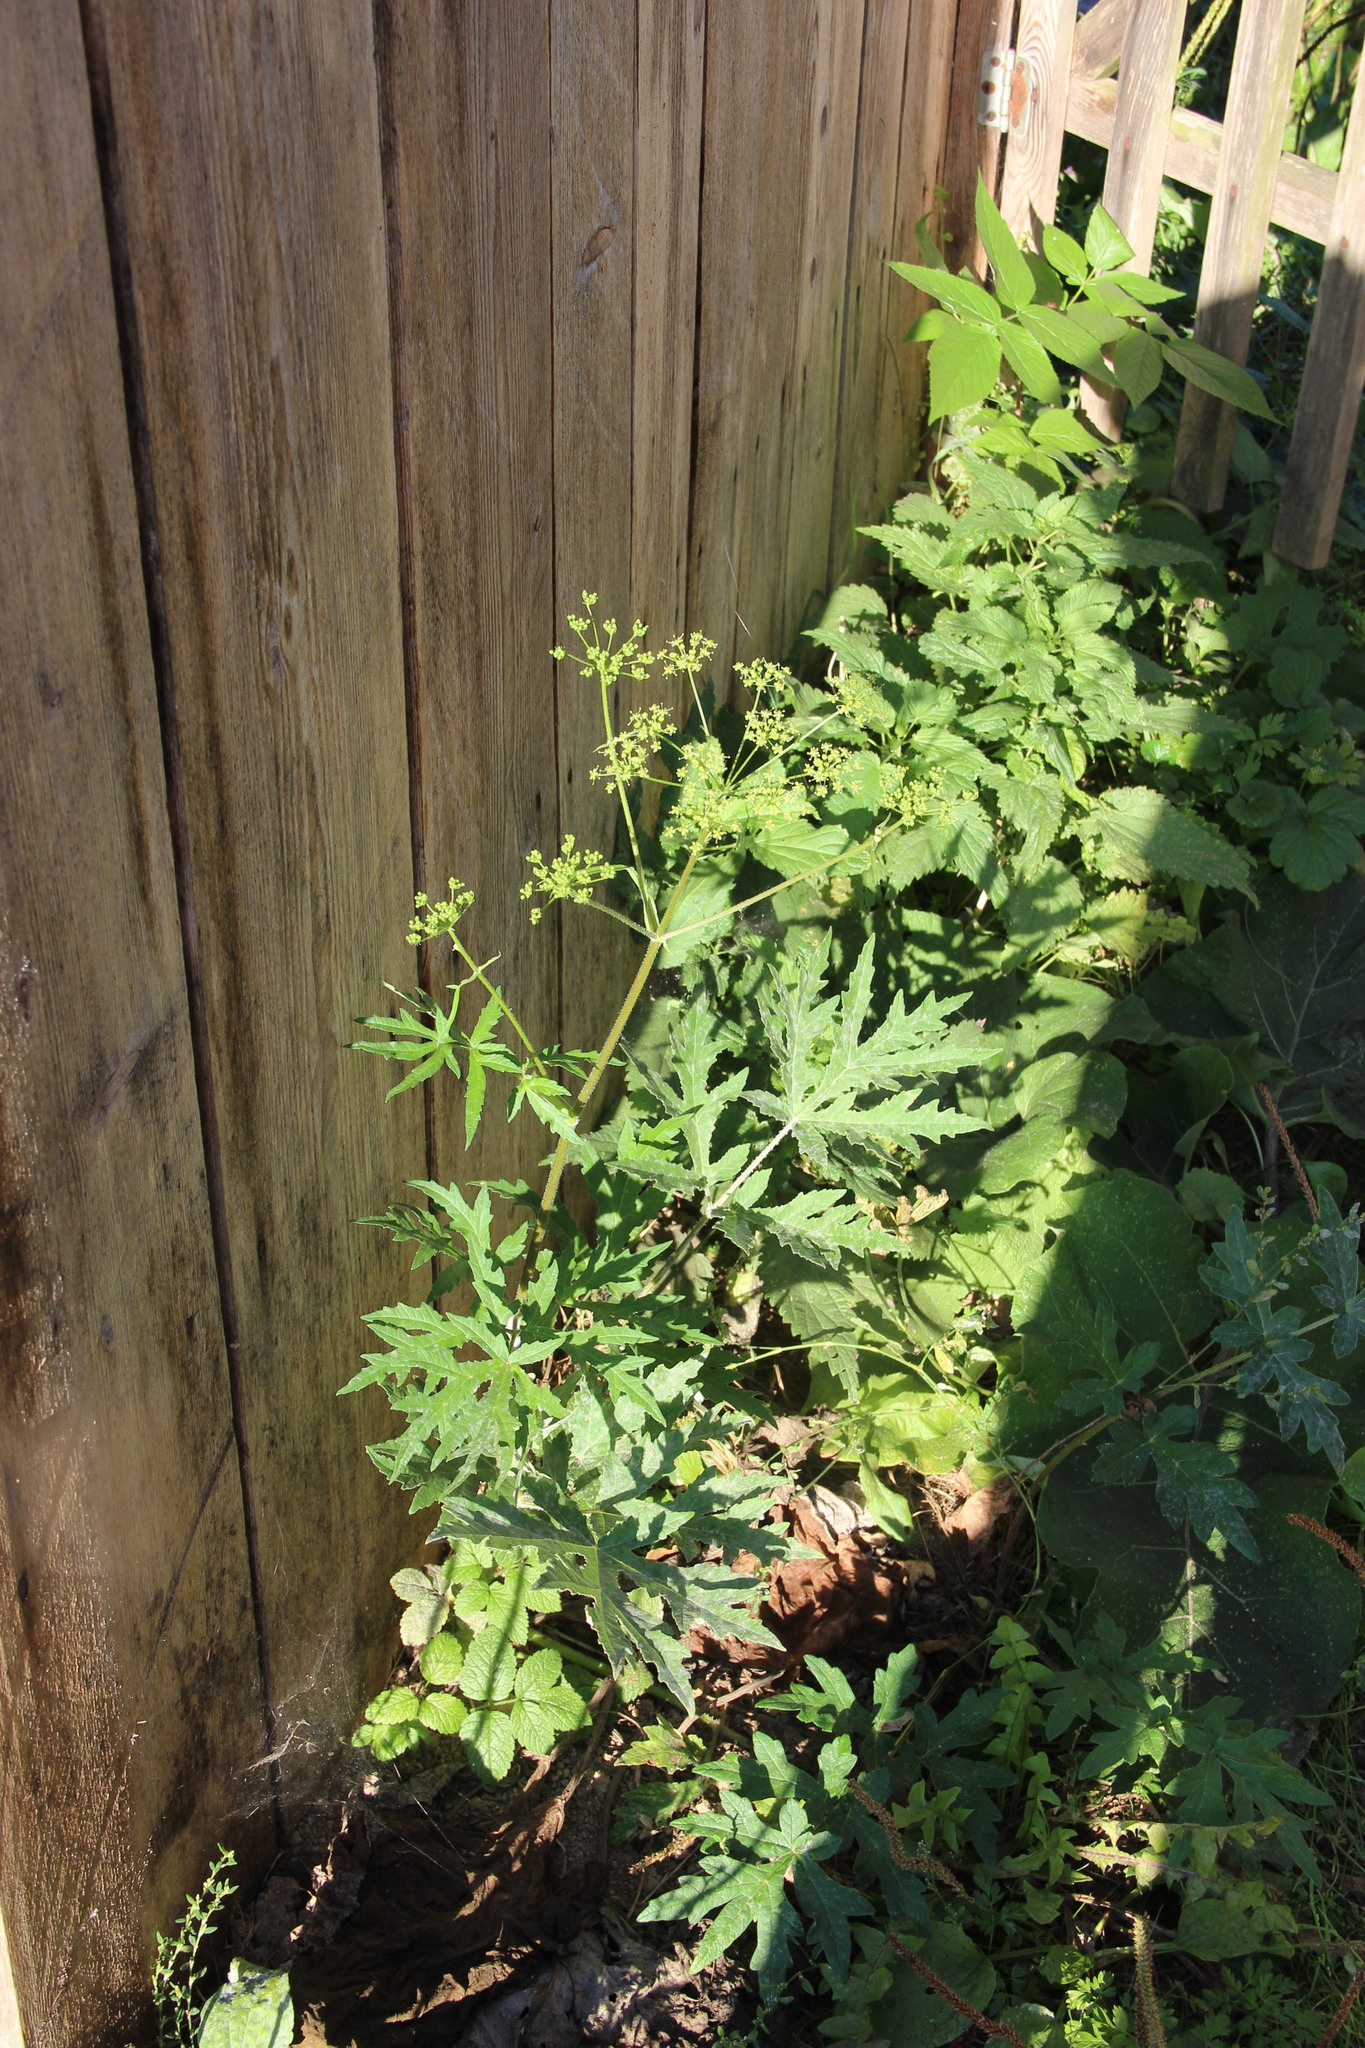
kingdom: Plantae
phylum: Tracheophyta
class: Magnoliopsida
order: Apiales
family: Apiaceae
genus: Heracleum
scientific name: Heracleum sphondylium
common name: Hogweed
